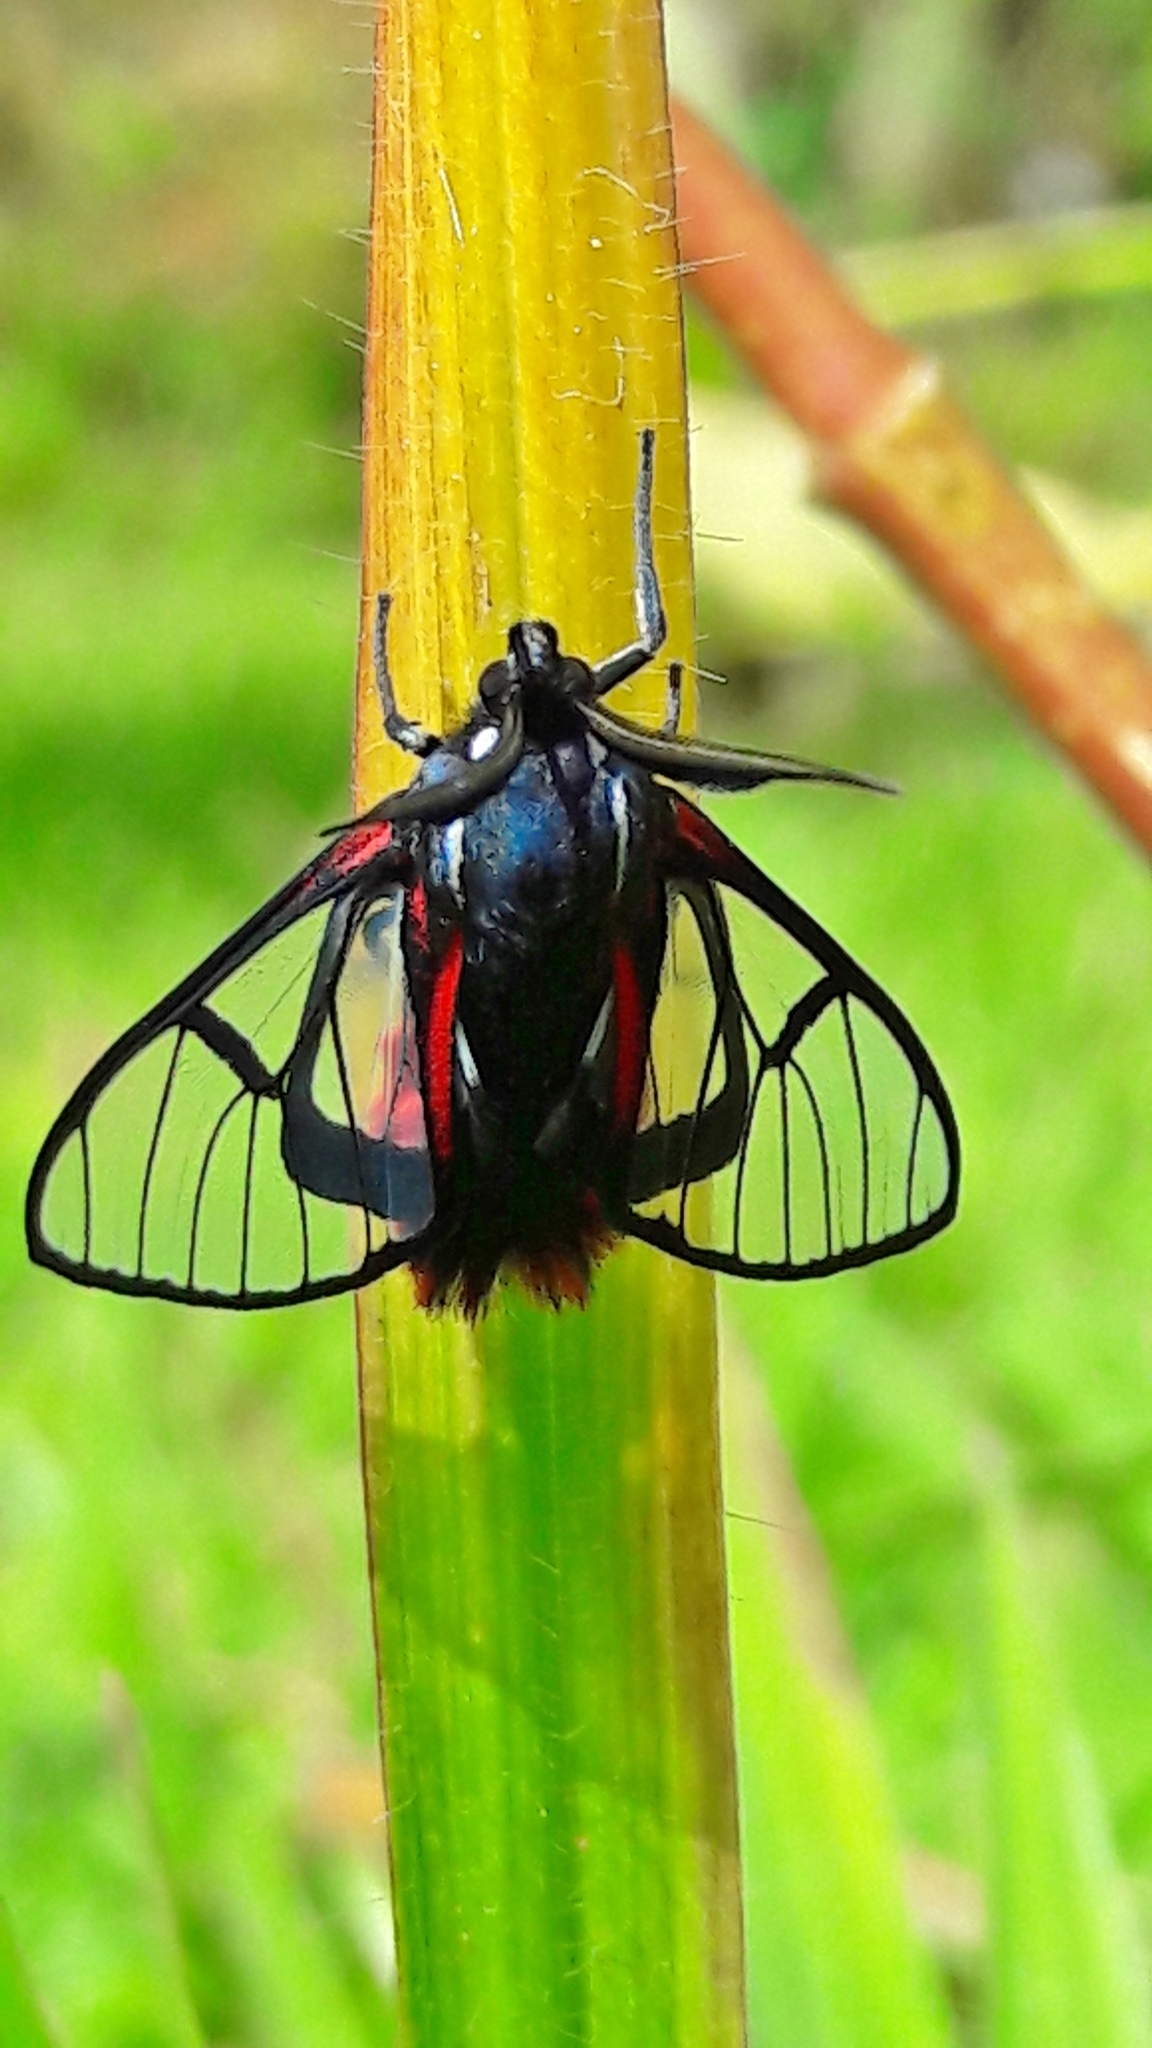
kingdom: Animalia
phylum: Arthropoda
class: Insecta
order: Lepidoptera
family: Erebidae
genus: Dinia
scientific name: Dinia mena
